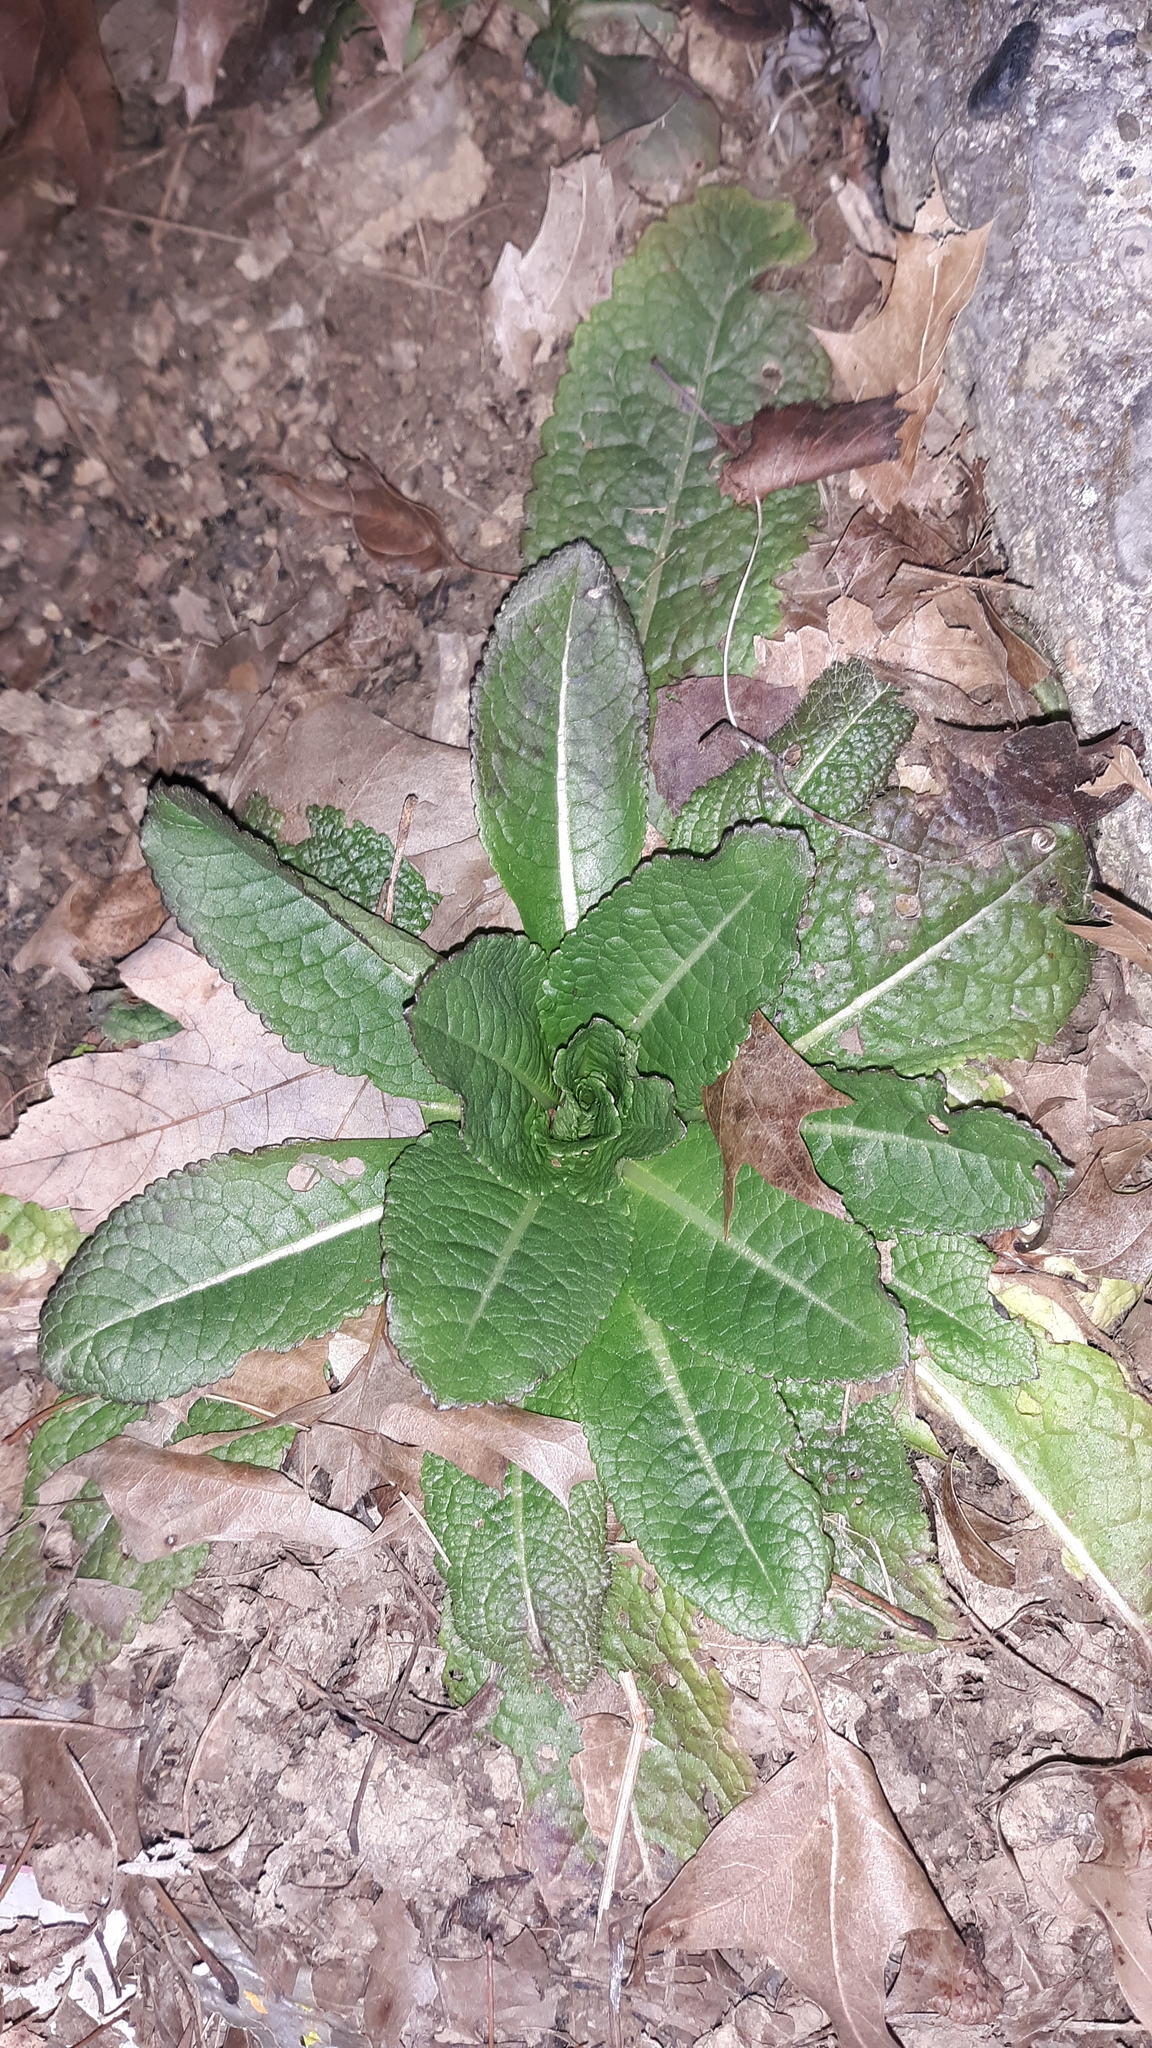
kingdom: Plantae
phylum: Tracheophyta
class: Magnoliopsida
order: Dipsacales
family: Caprifoliaceae
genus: Dipsacus
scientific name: Dipsacus fullonum
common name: Teasel
